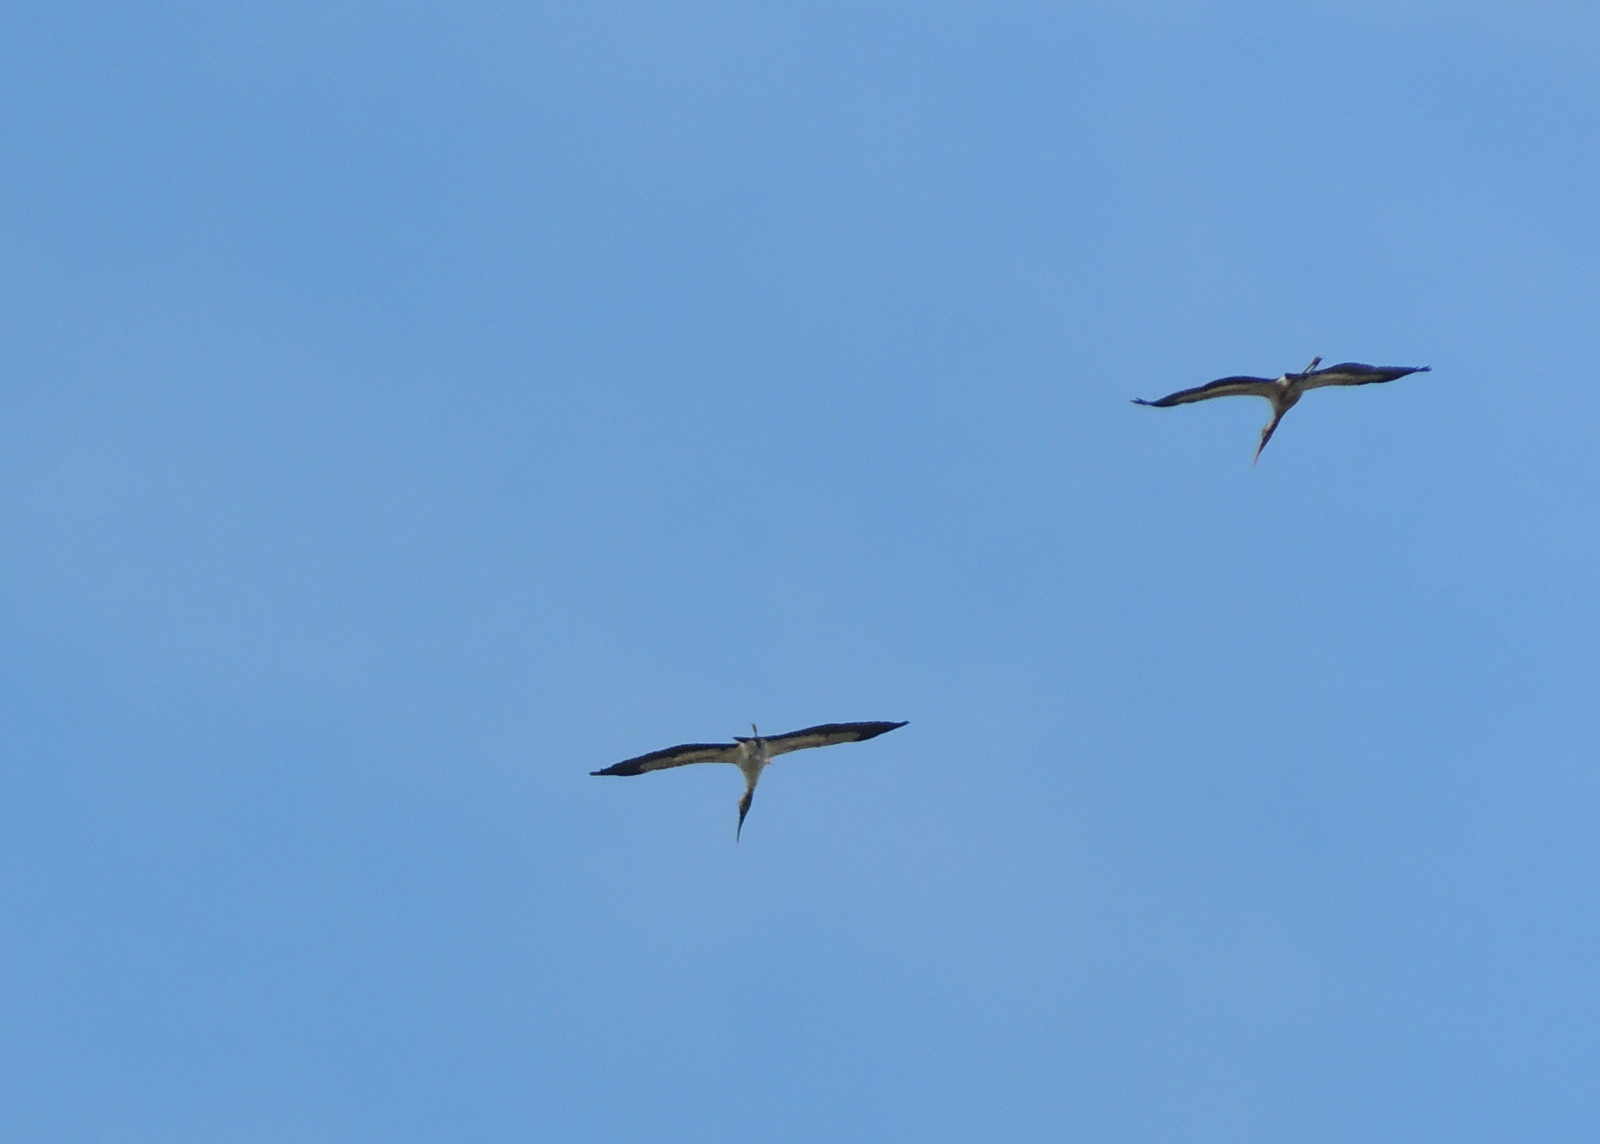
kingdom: Animalia
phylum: Chordata
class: Aves
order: Ciconiiformes
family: Ciconiidae
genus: Mycteria
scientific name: Mycteria americana
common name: Wood stork
